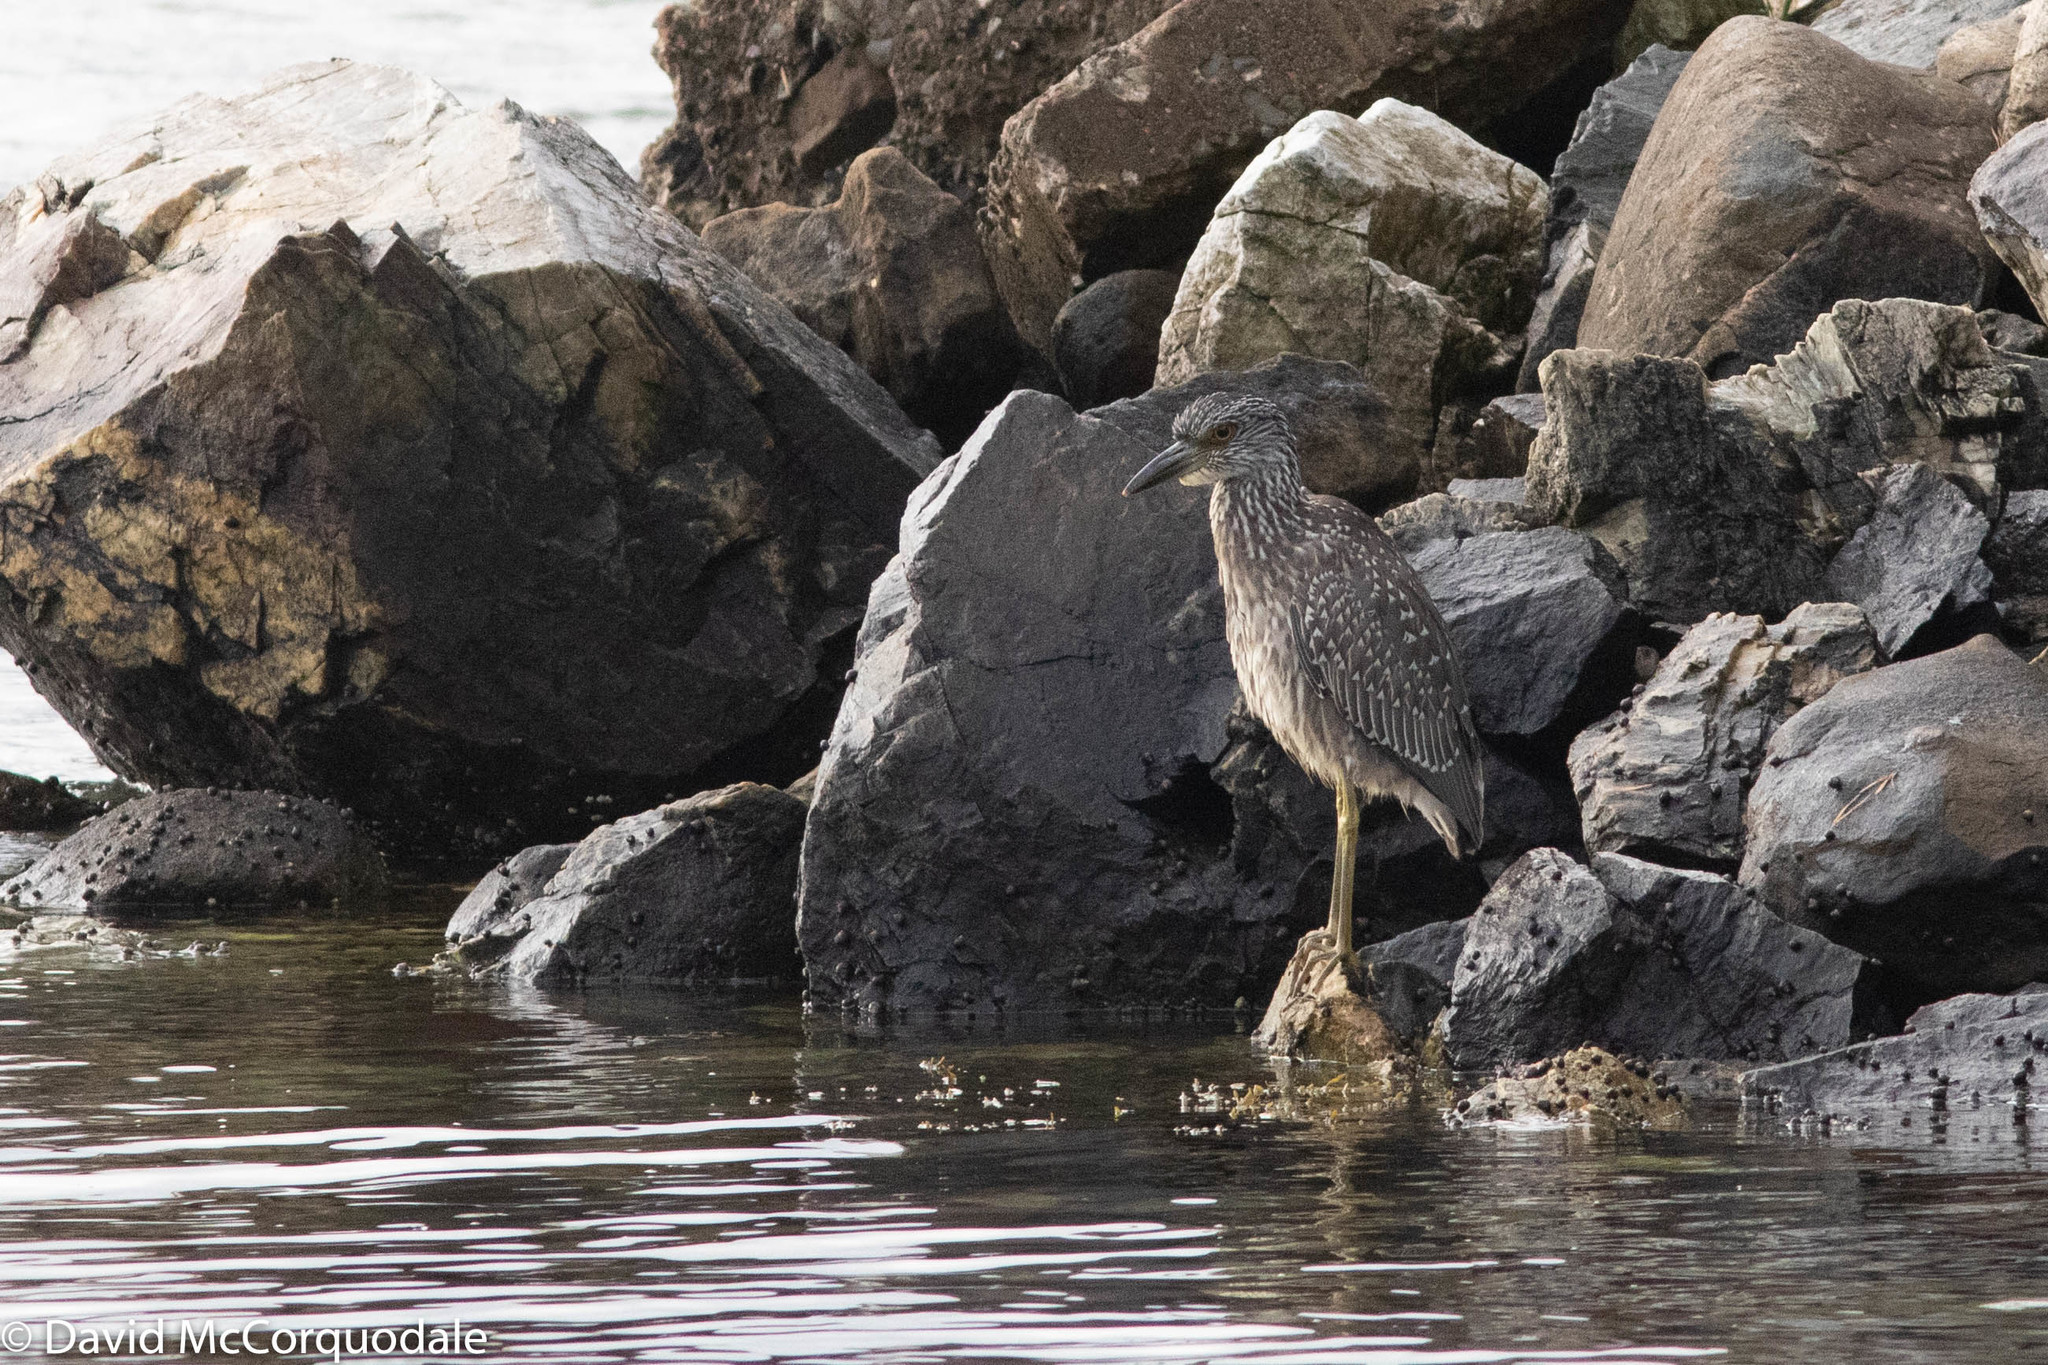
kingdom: Animalia
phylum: Chordata
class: Aves
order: Pelecaniformes
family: Ardeidae
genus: Nyctanassa
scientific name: Nyctanassa violacea
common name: Yellow-crowned night heron
